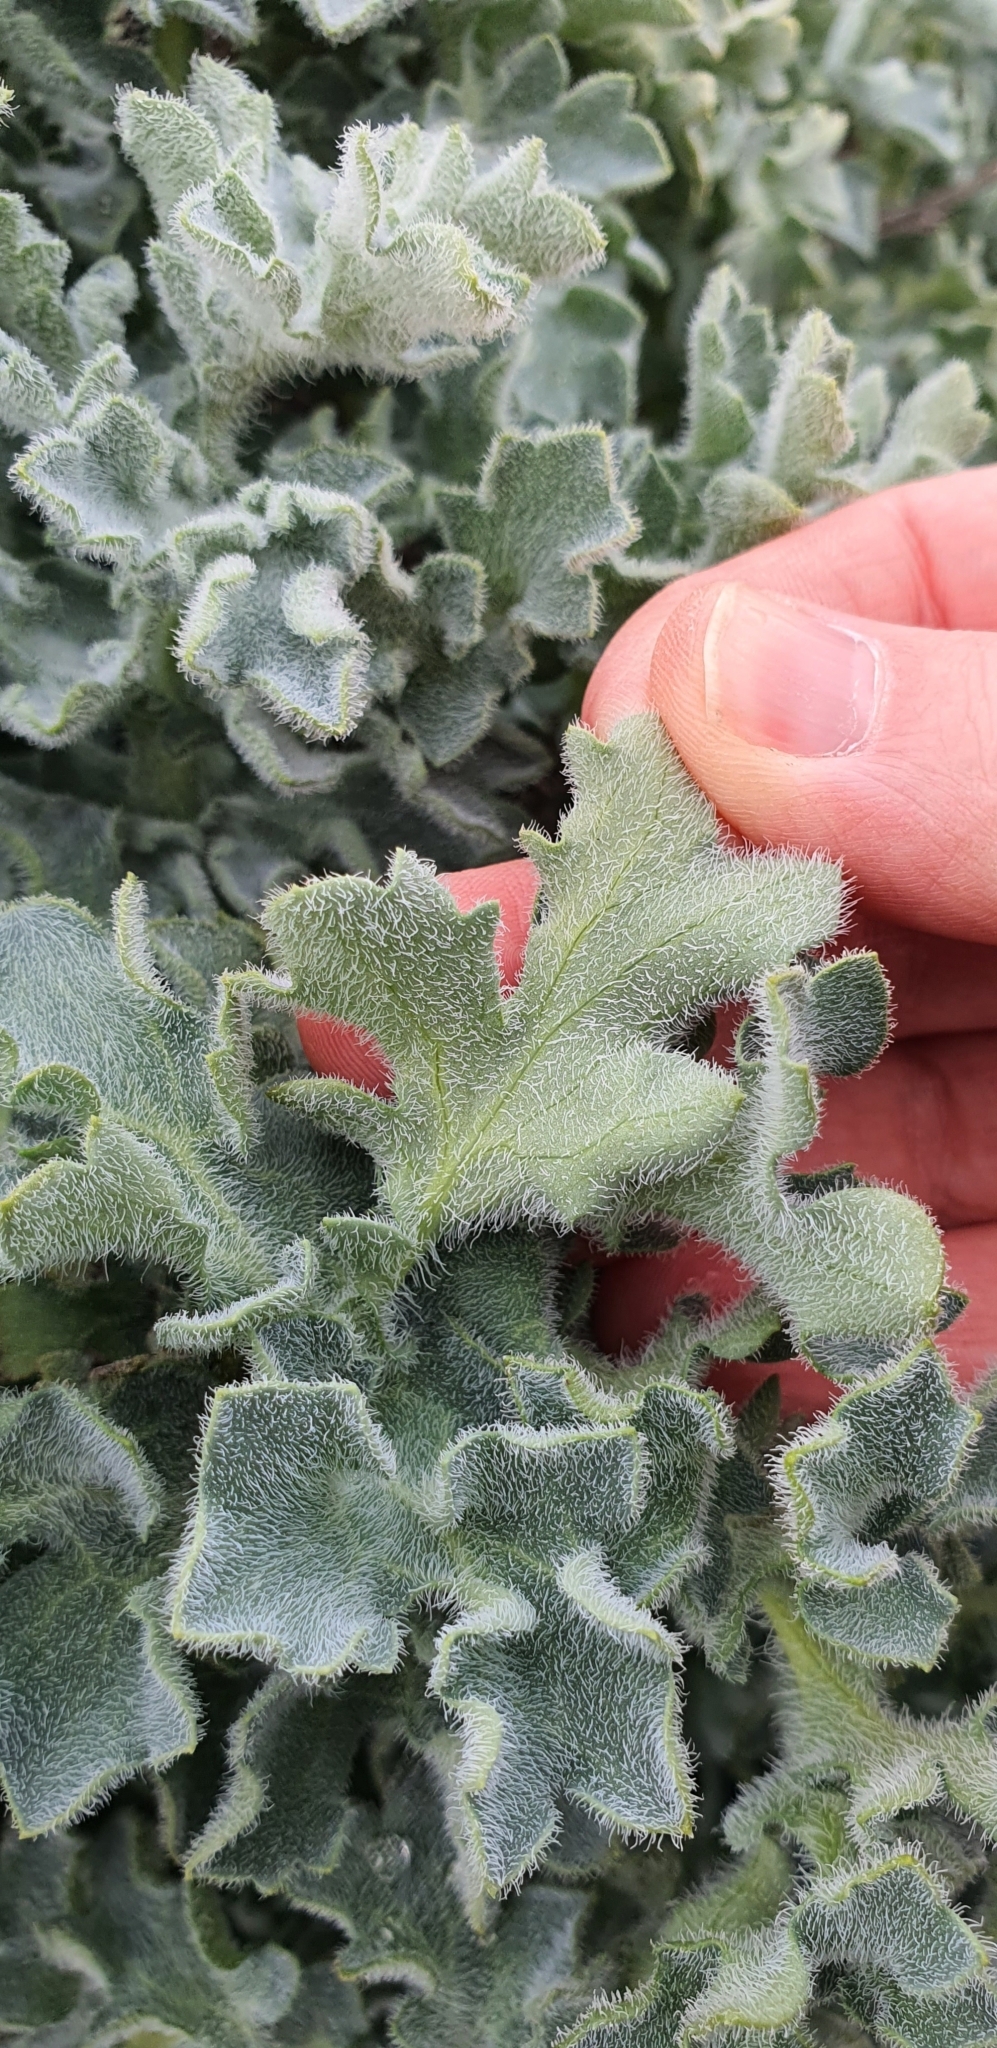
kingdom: Plantae
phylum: Tracheophyta
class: Magnoliopsida
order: Ranunculales
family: Papaveraceae
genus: Glaucium
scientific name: Glaucium flavum
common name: Yellow horned-poppy
